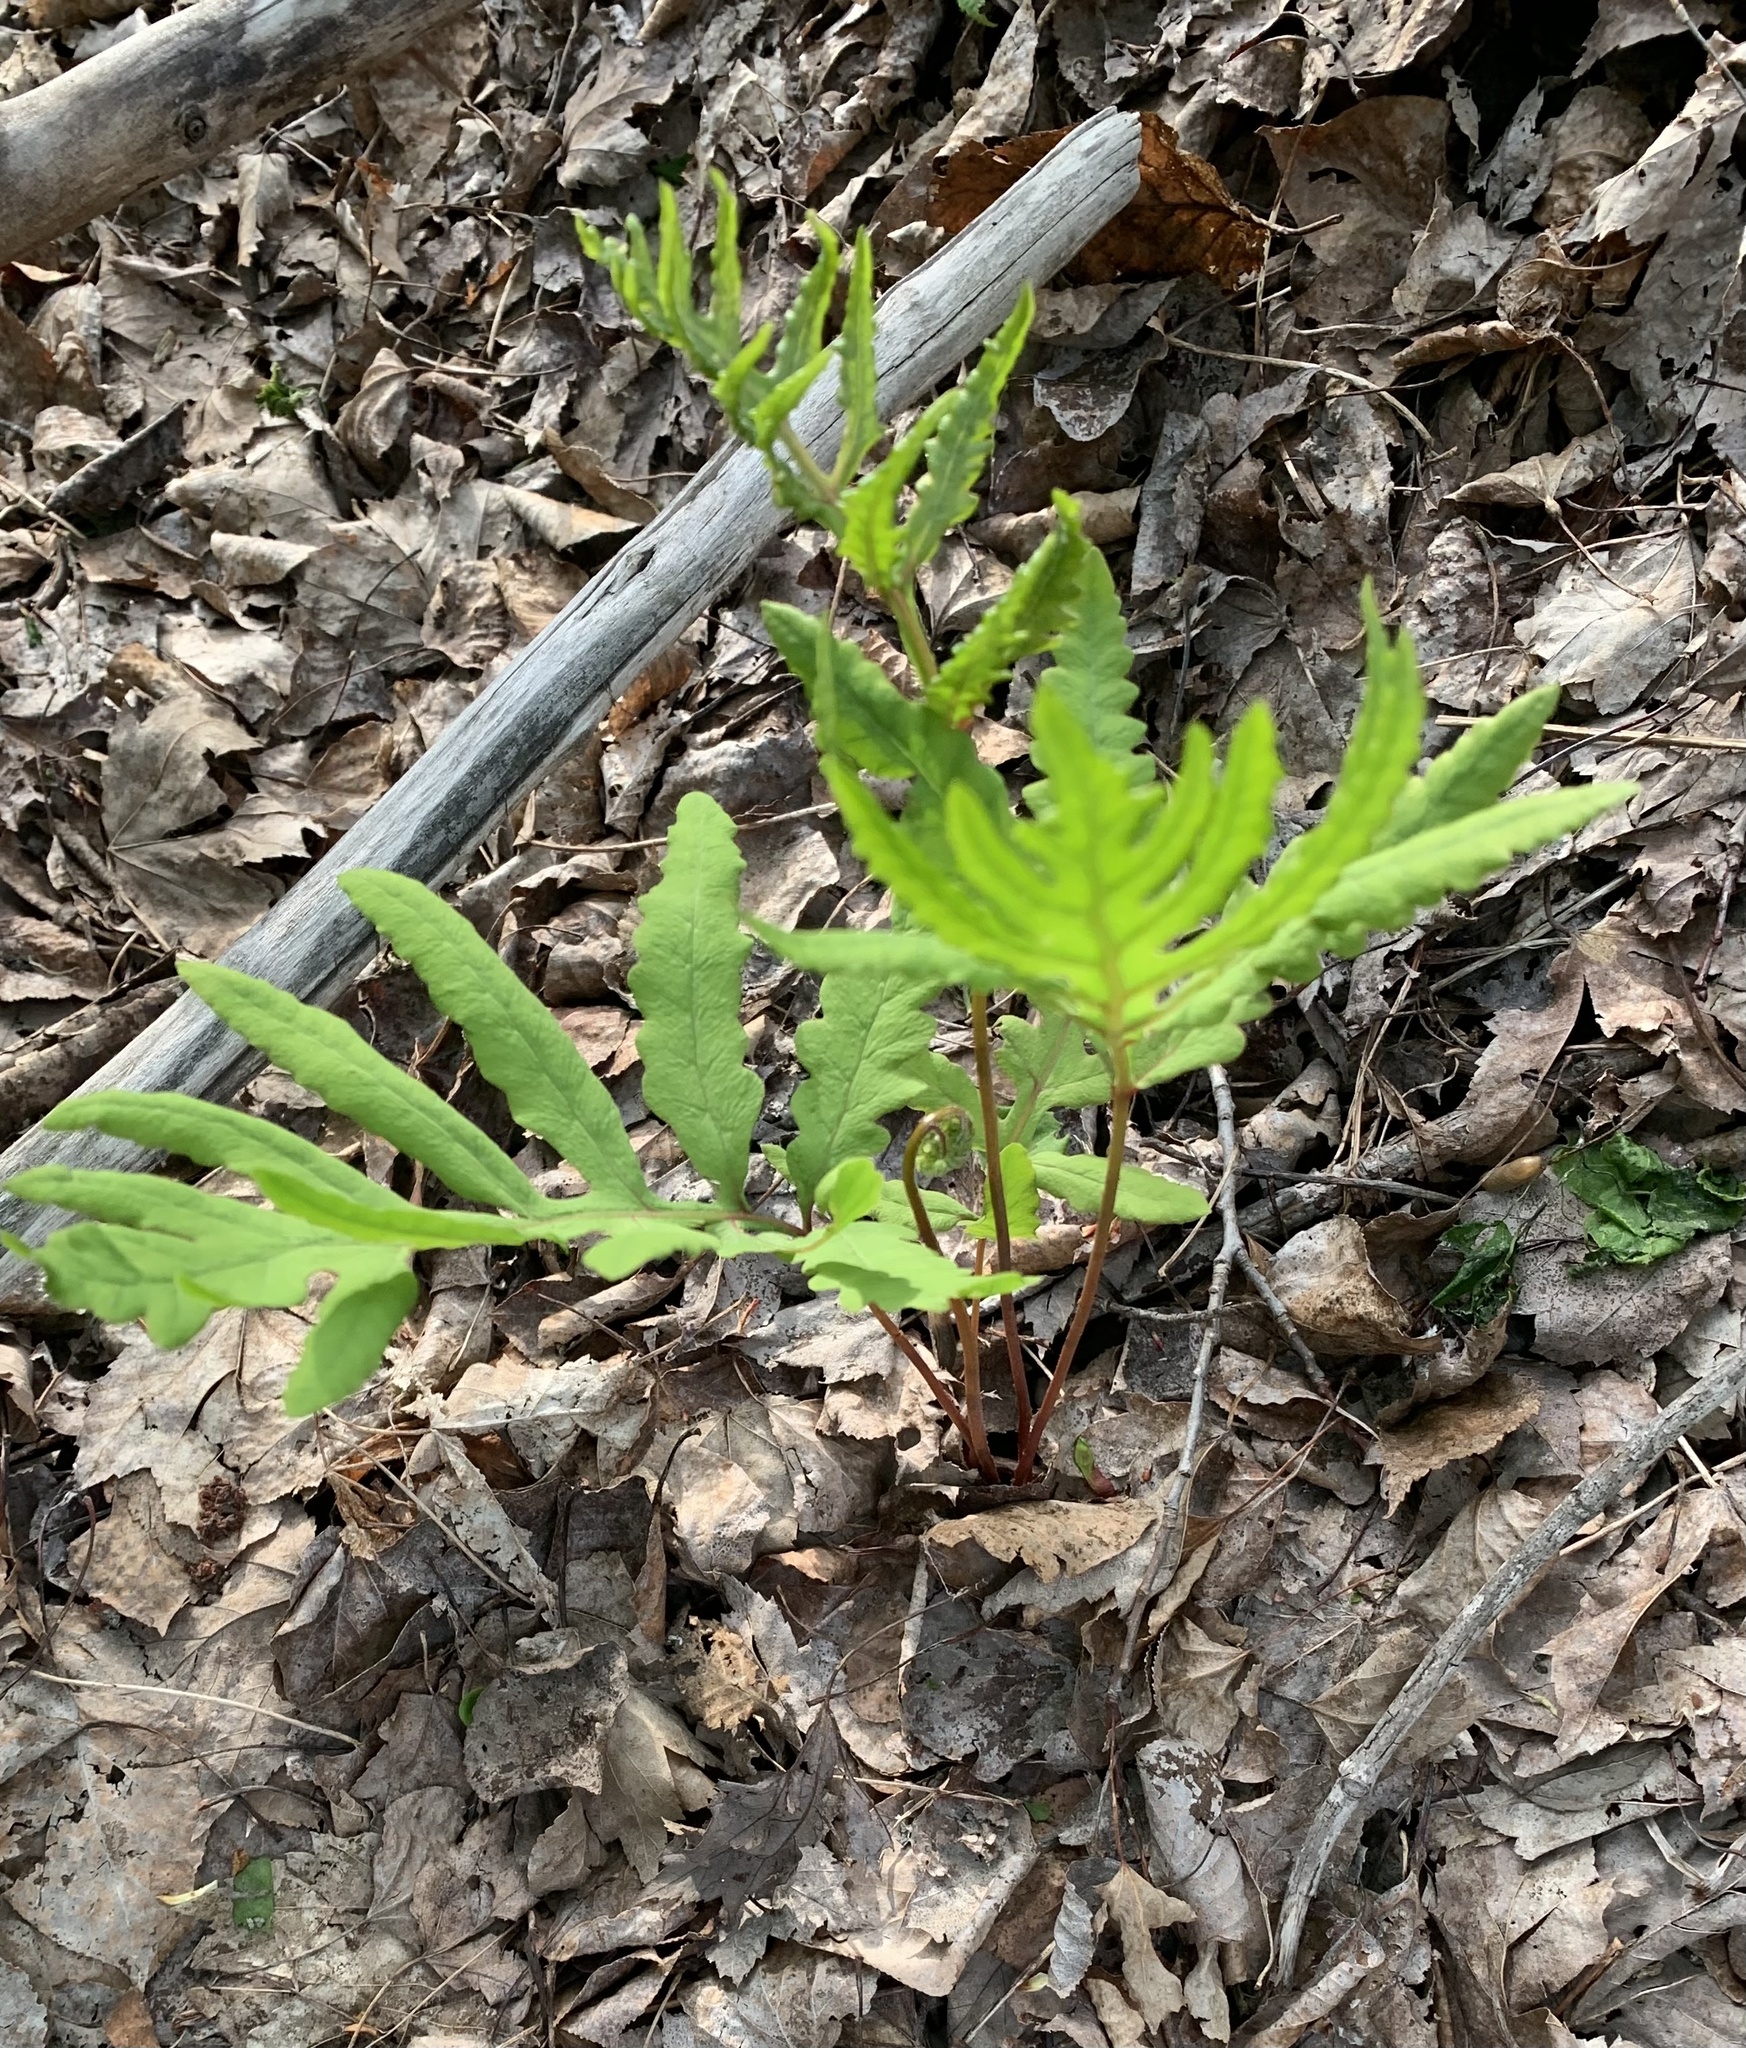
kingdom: Plantae
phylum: Tracheophyta
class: Polypodiopsida
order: Polypodiales
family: Onocleaceae
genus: Onoclea
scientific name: Onoclea sensibilis
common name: Sensitive fern
